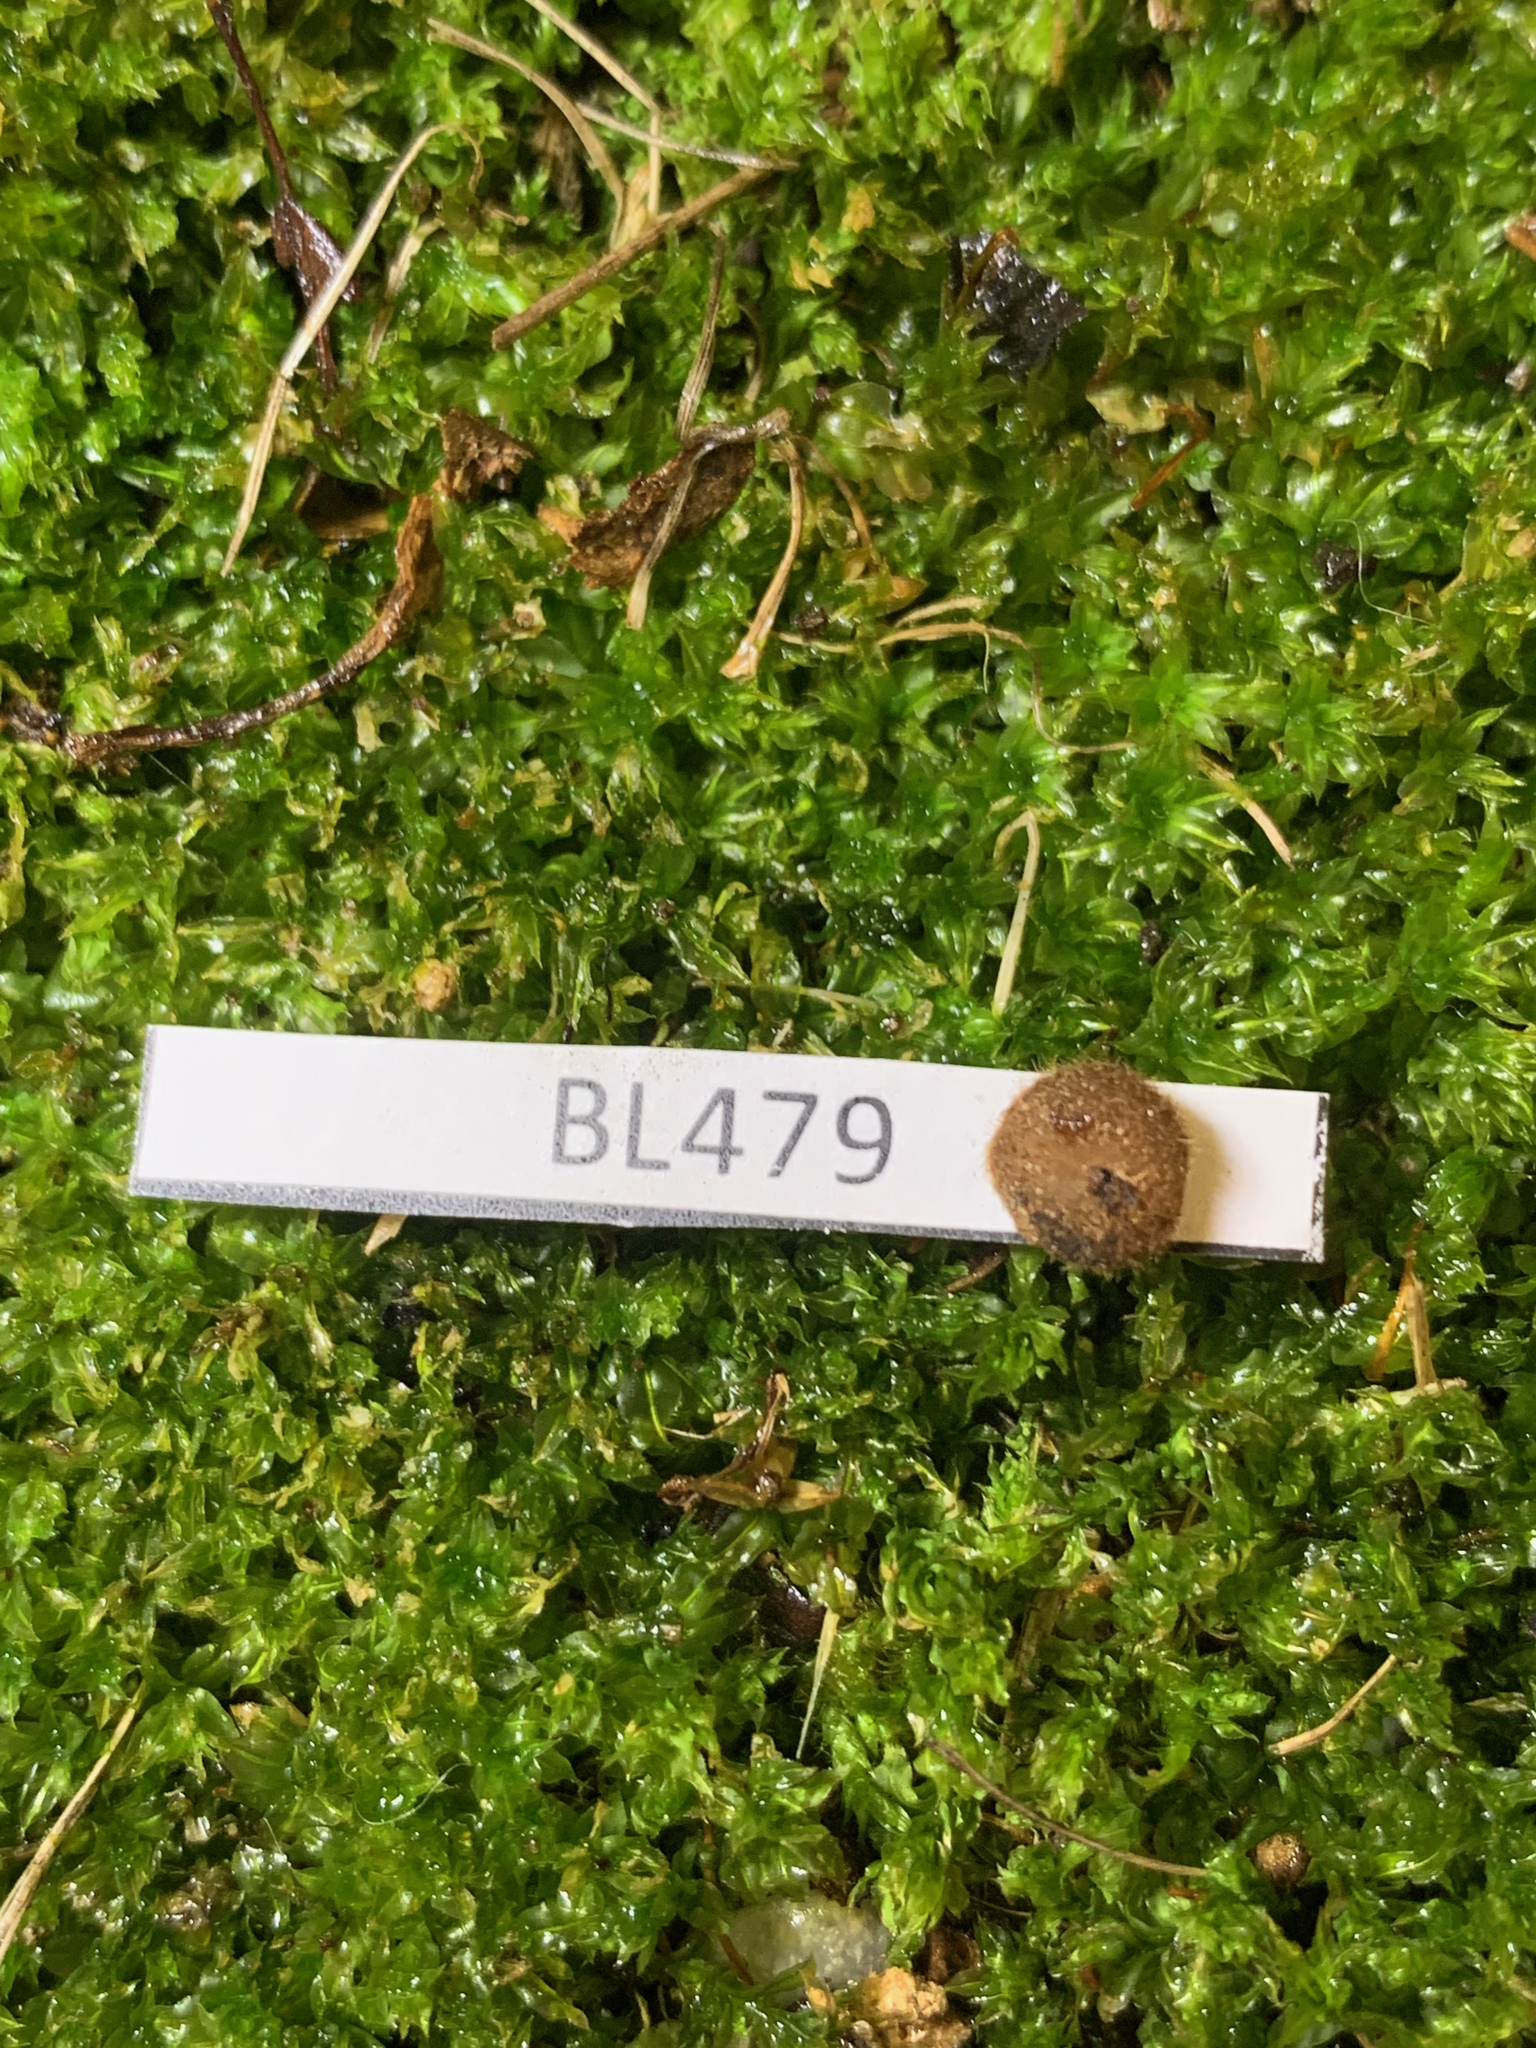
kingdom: Fungi
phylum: Ascomycota
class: Pezizomycetes
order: Pezizales
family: Pyronemataceae
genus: Genea
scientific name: Genea hispidula
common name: Hairy genea
